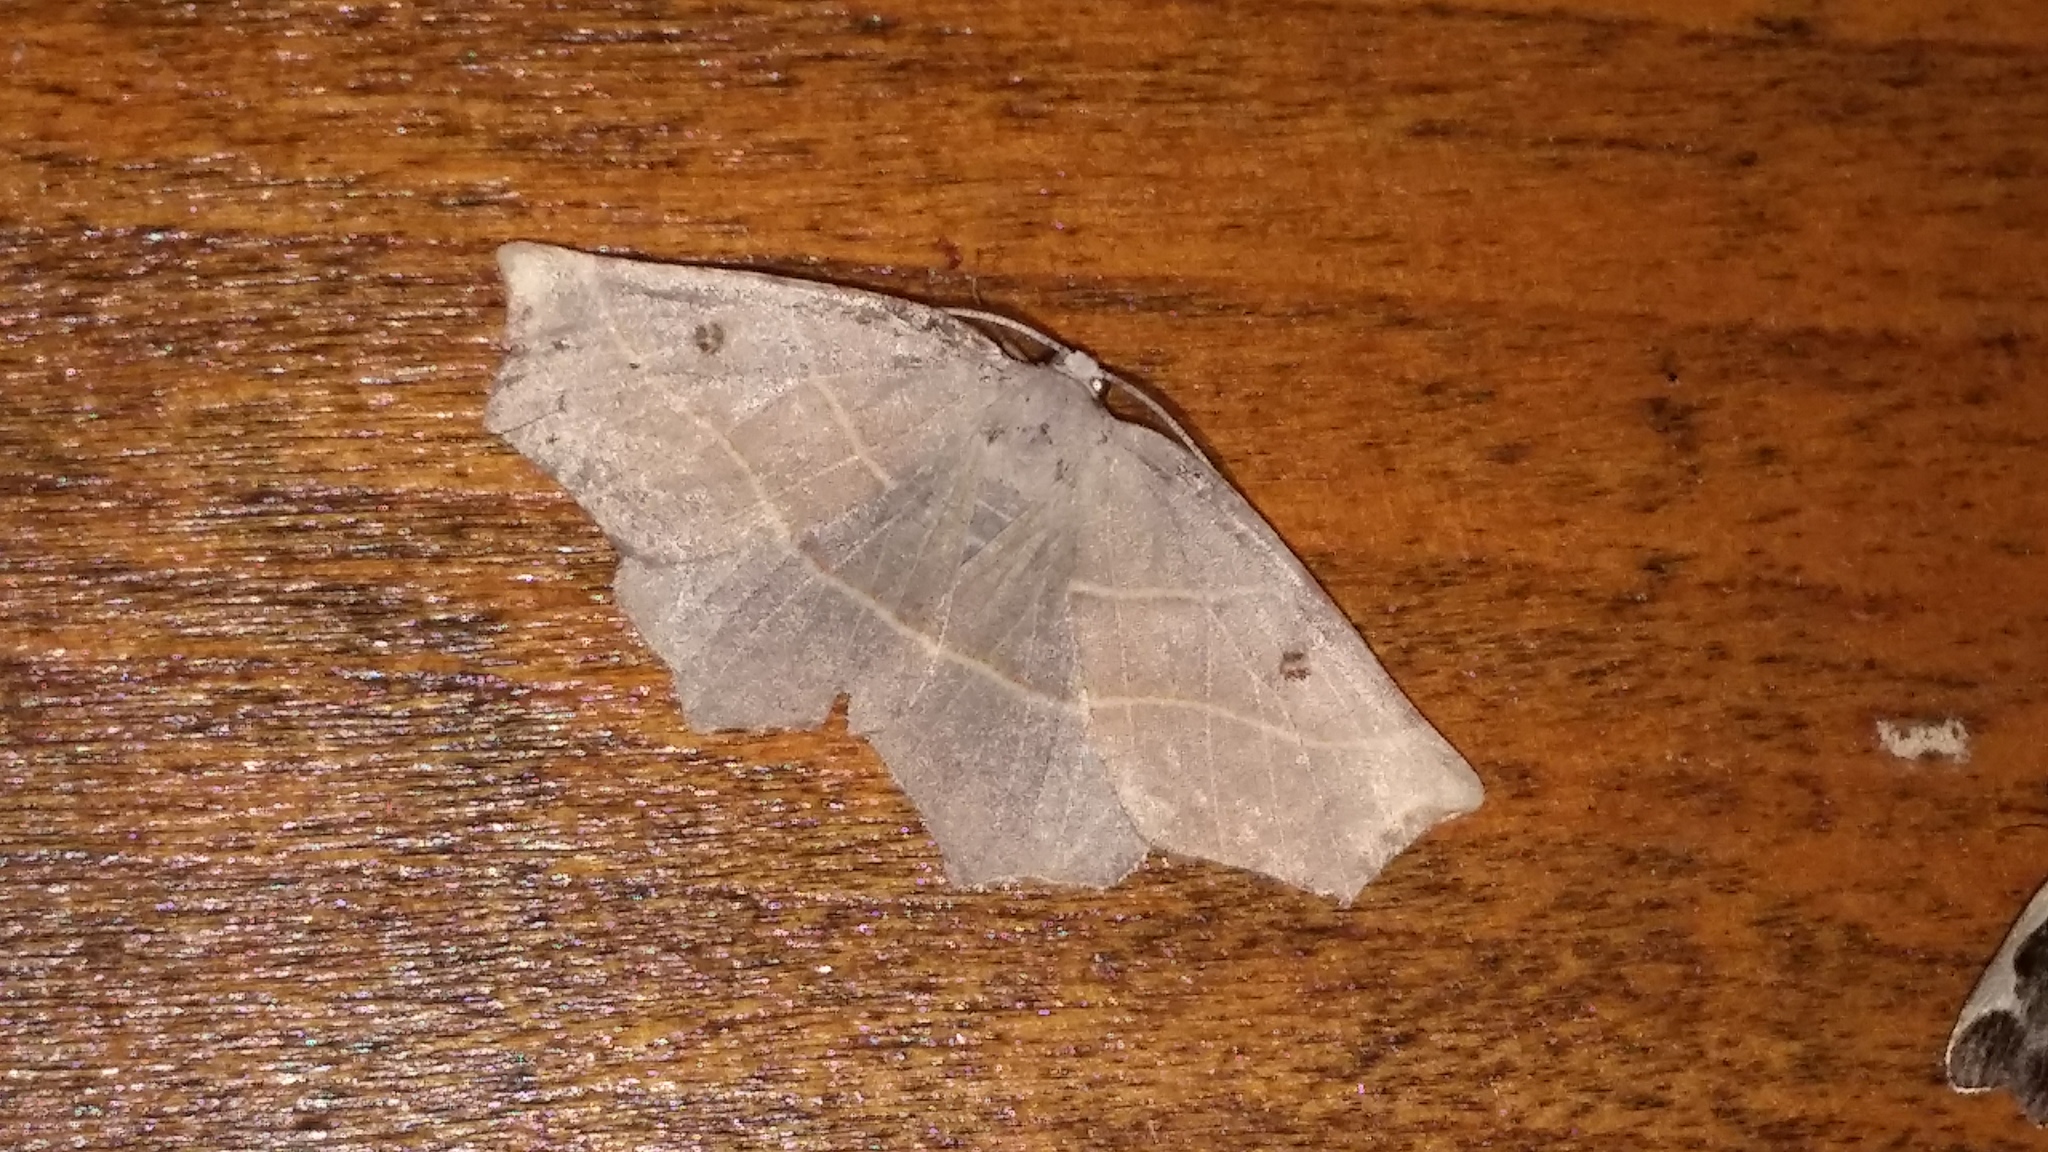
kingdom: Animalia
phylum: Arthropoda
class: Insecta
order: Lepidoptera
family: Geometridae
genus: Metanema
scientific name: Metanema inatomaria
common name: Pale metanema
